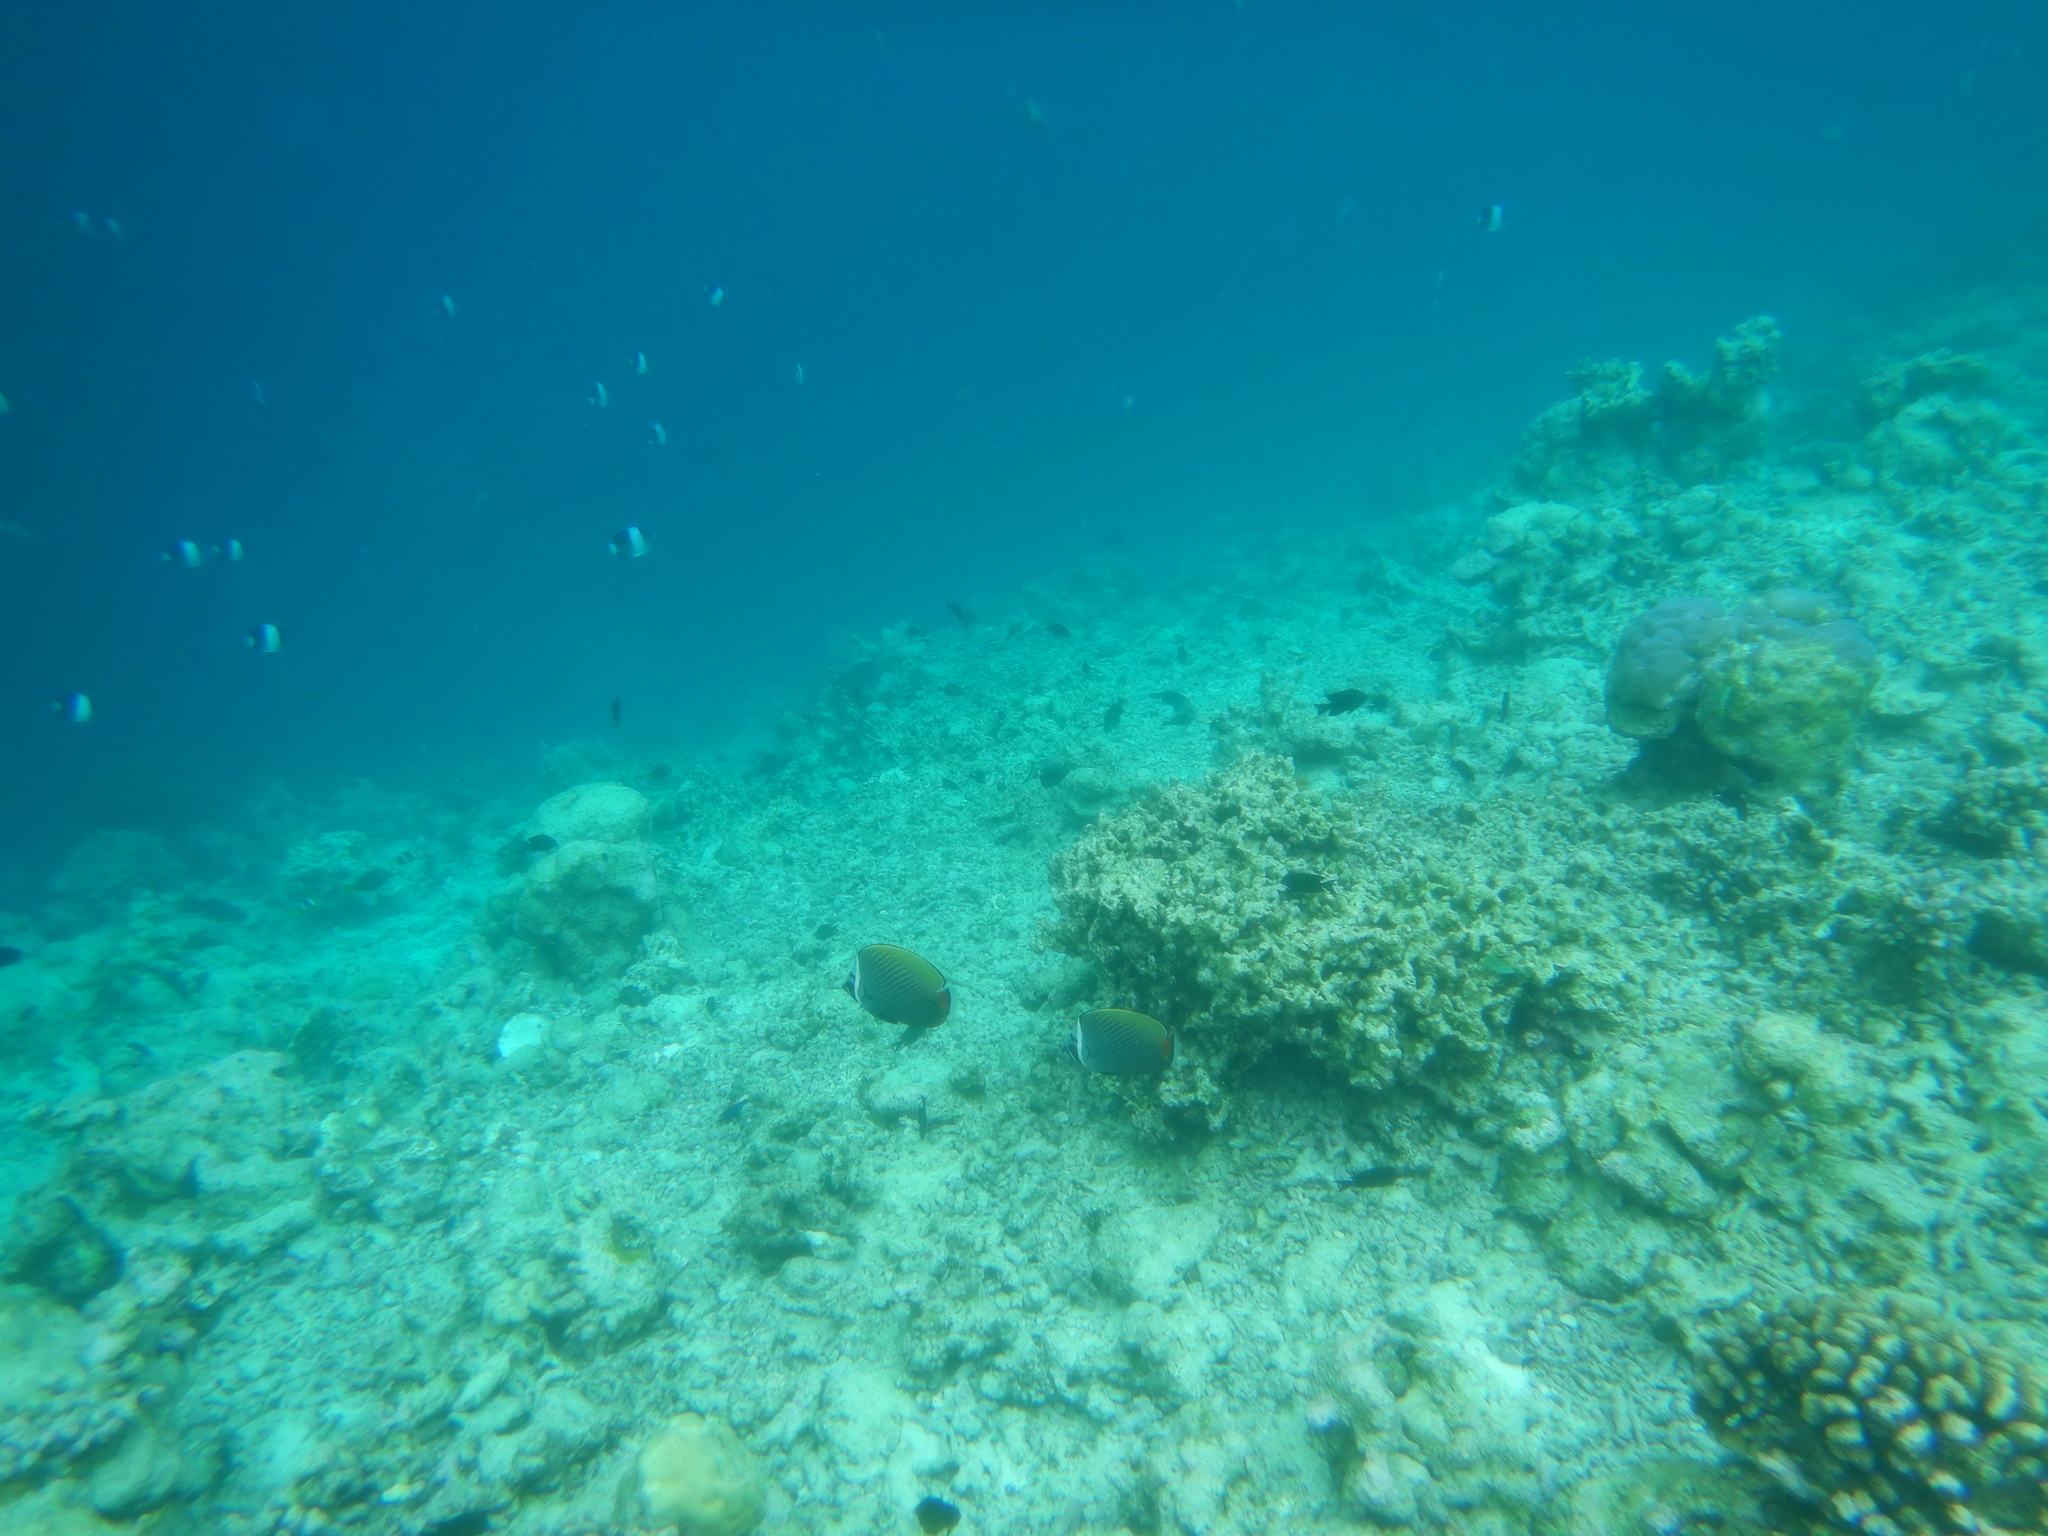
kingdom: Animalia
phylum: Chordata
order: Perciformes
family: Chaetodontidae
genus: Chaetodon
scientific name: Chaetodon collare
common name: Redtail butterflyfish
